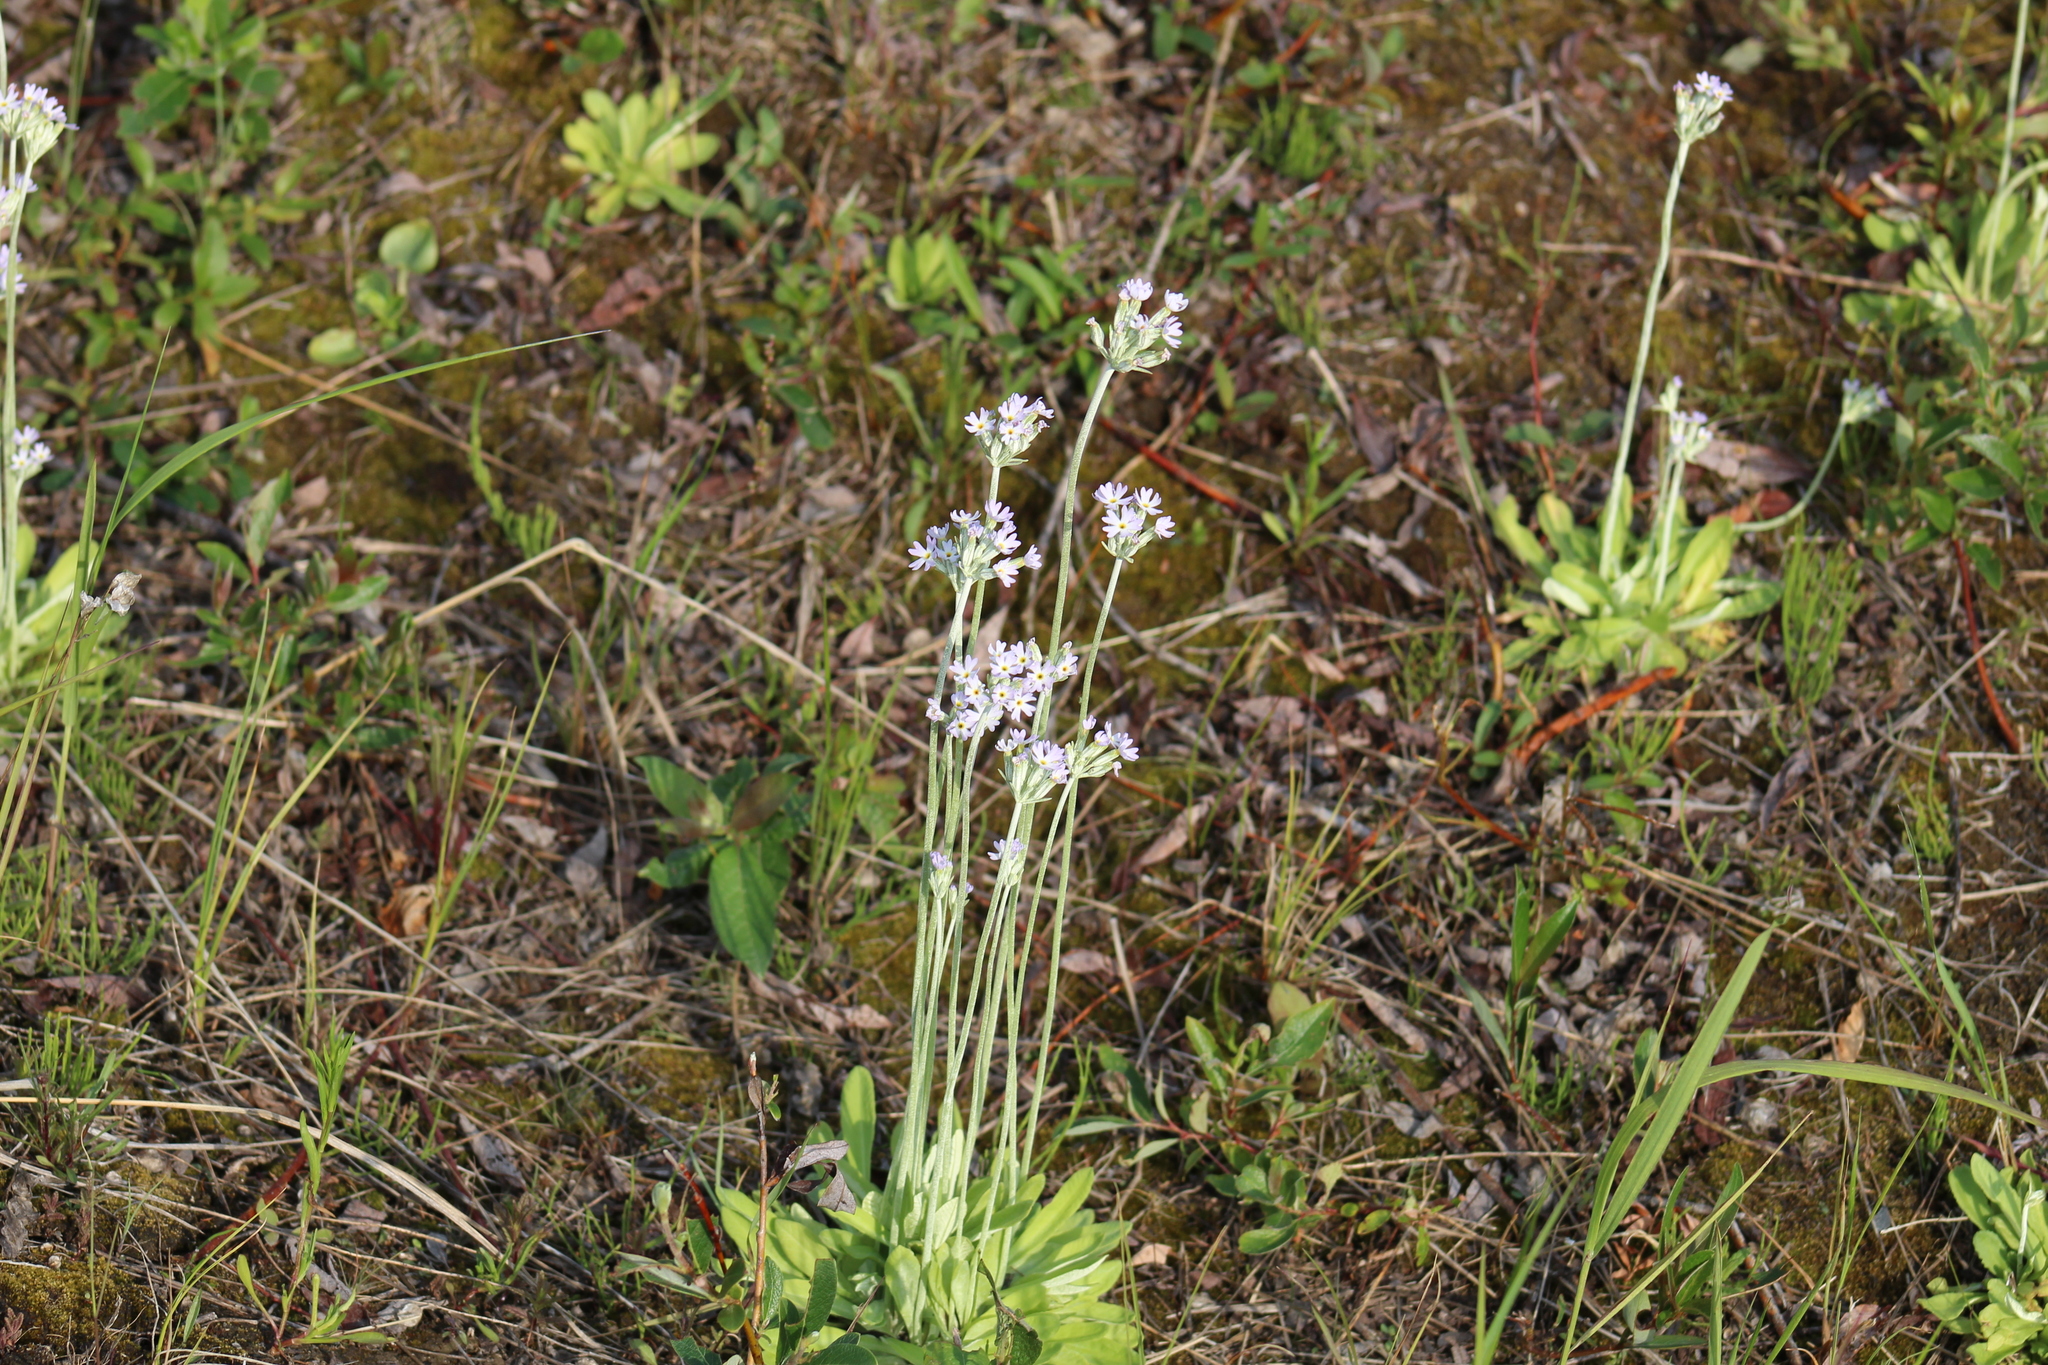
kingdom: Plantae
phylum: Tracheophyta
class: Magnoliopsida
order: Ericales
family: Primulaceae
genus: Primula
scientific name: Primula incana
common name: Hoary primrose
